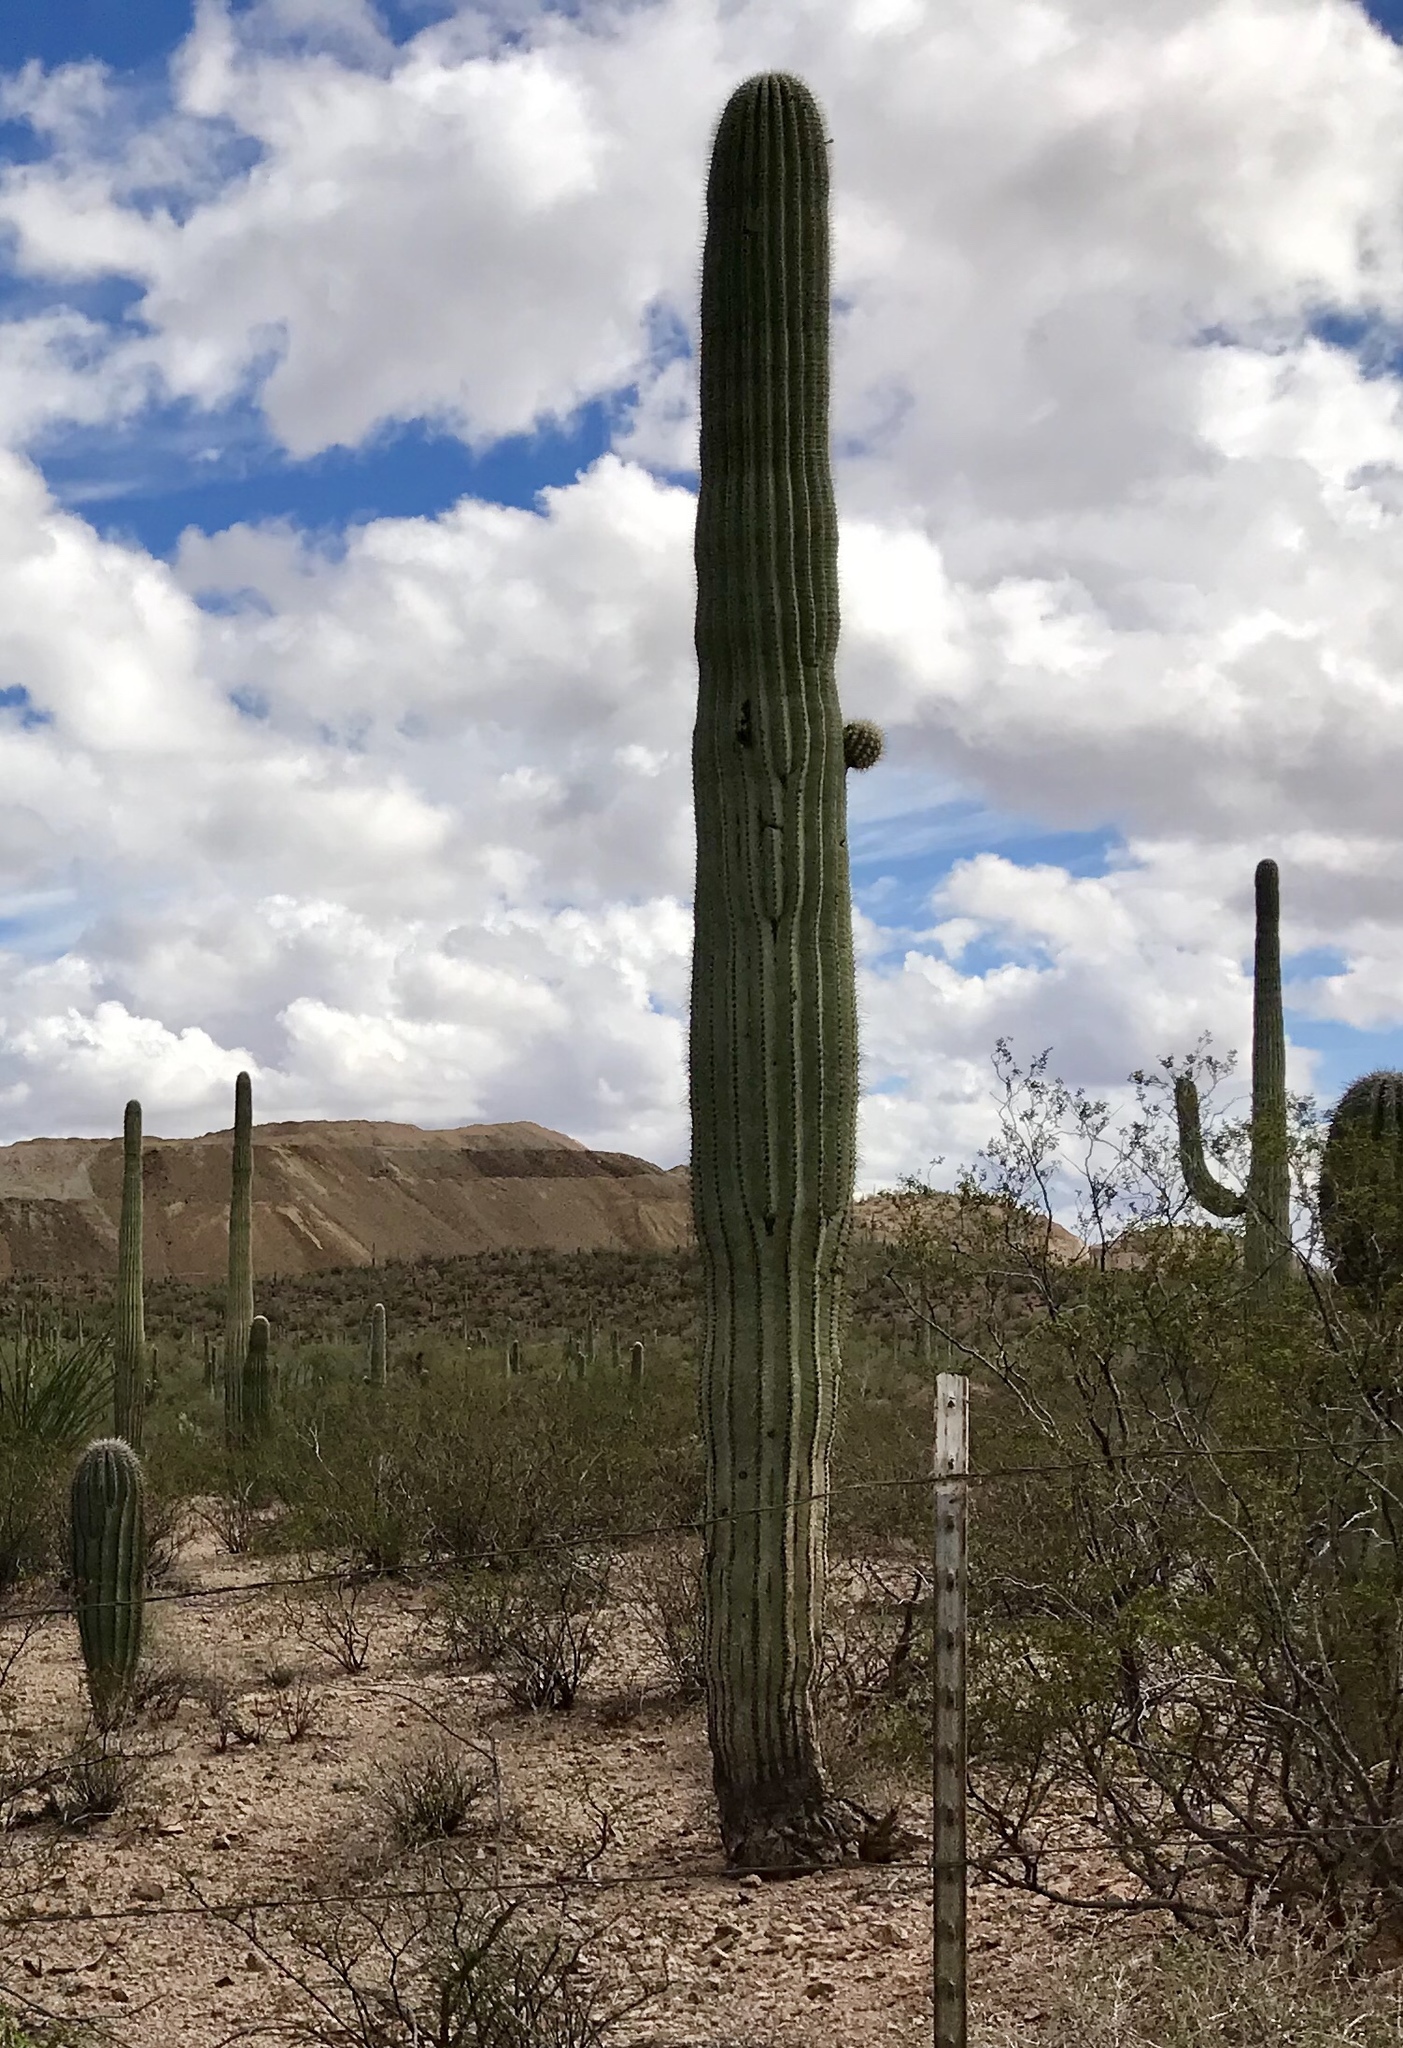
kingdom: Plantae
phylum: Tracheophyta
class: Magnoliopsida
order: Caryophyllales
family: Cactaceae
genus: Carnegiea
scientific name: Carnegiea gigantea
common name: Saguaro
